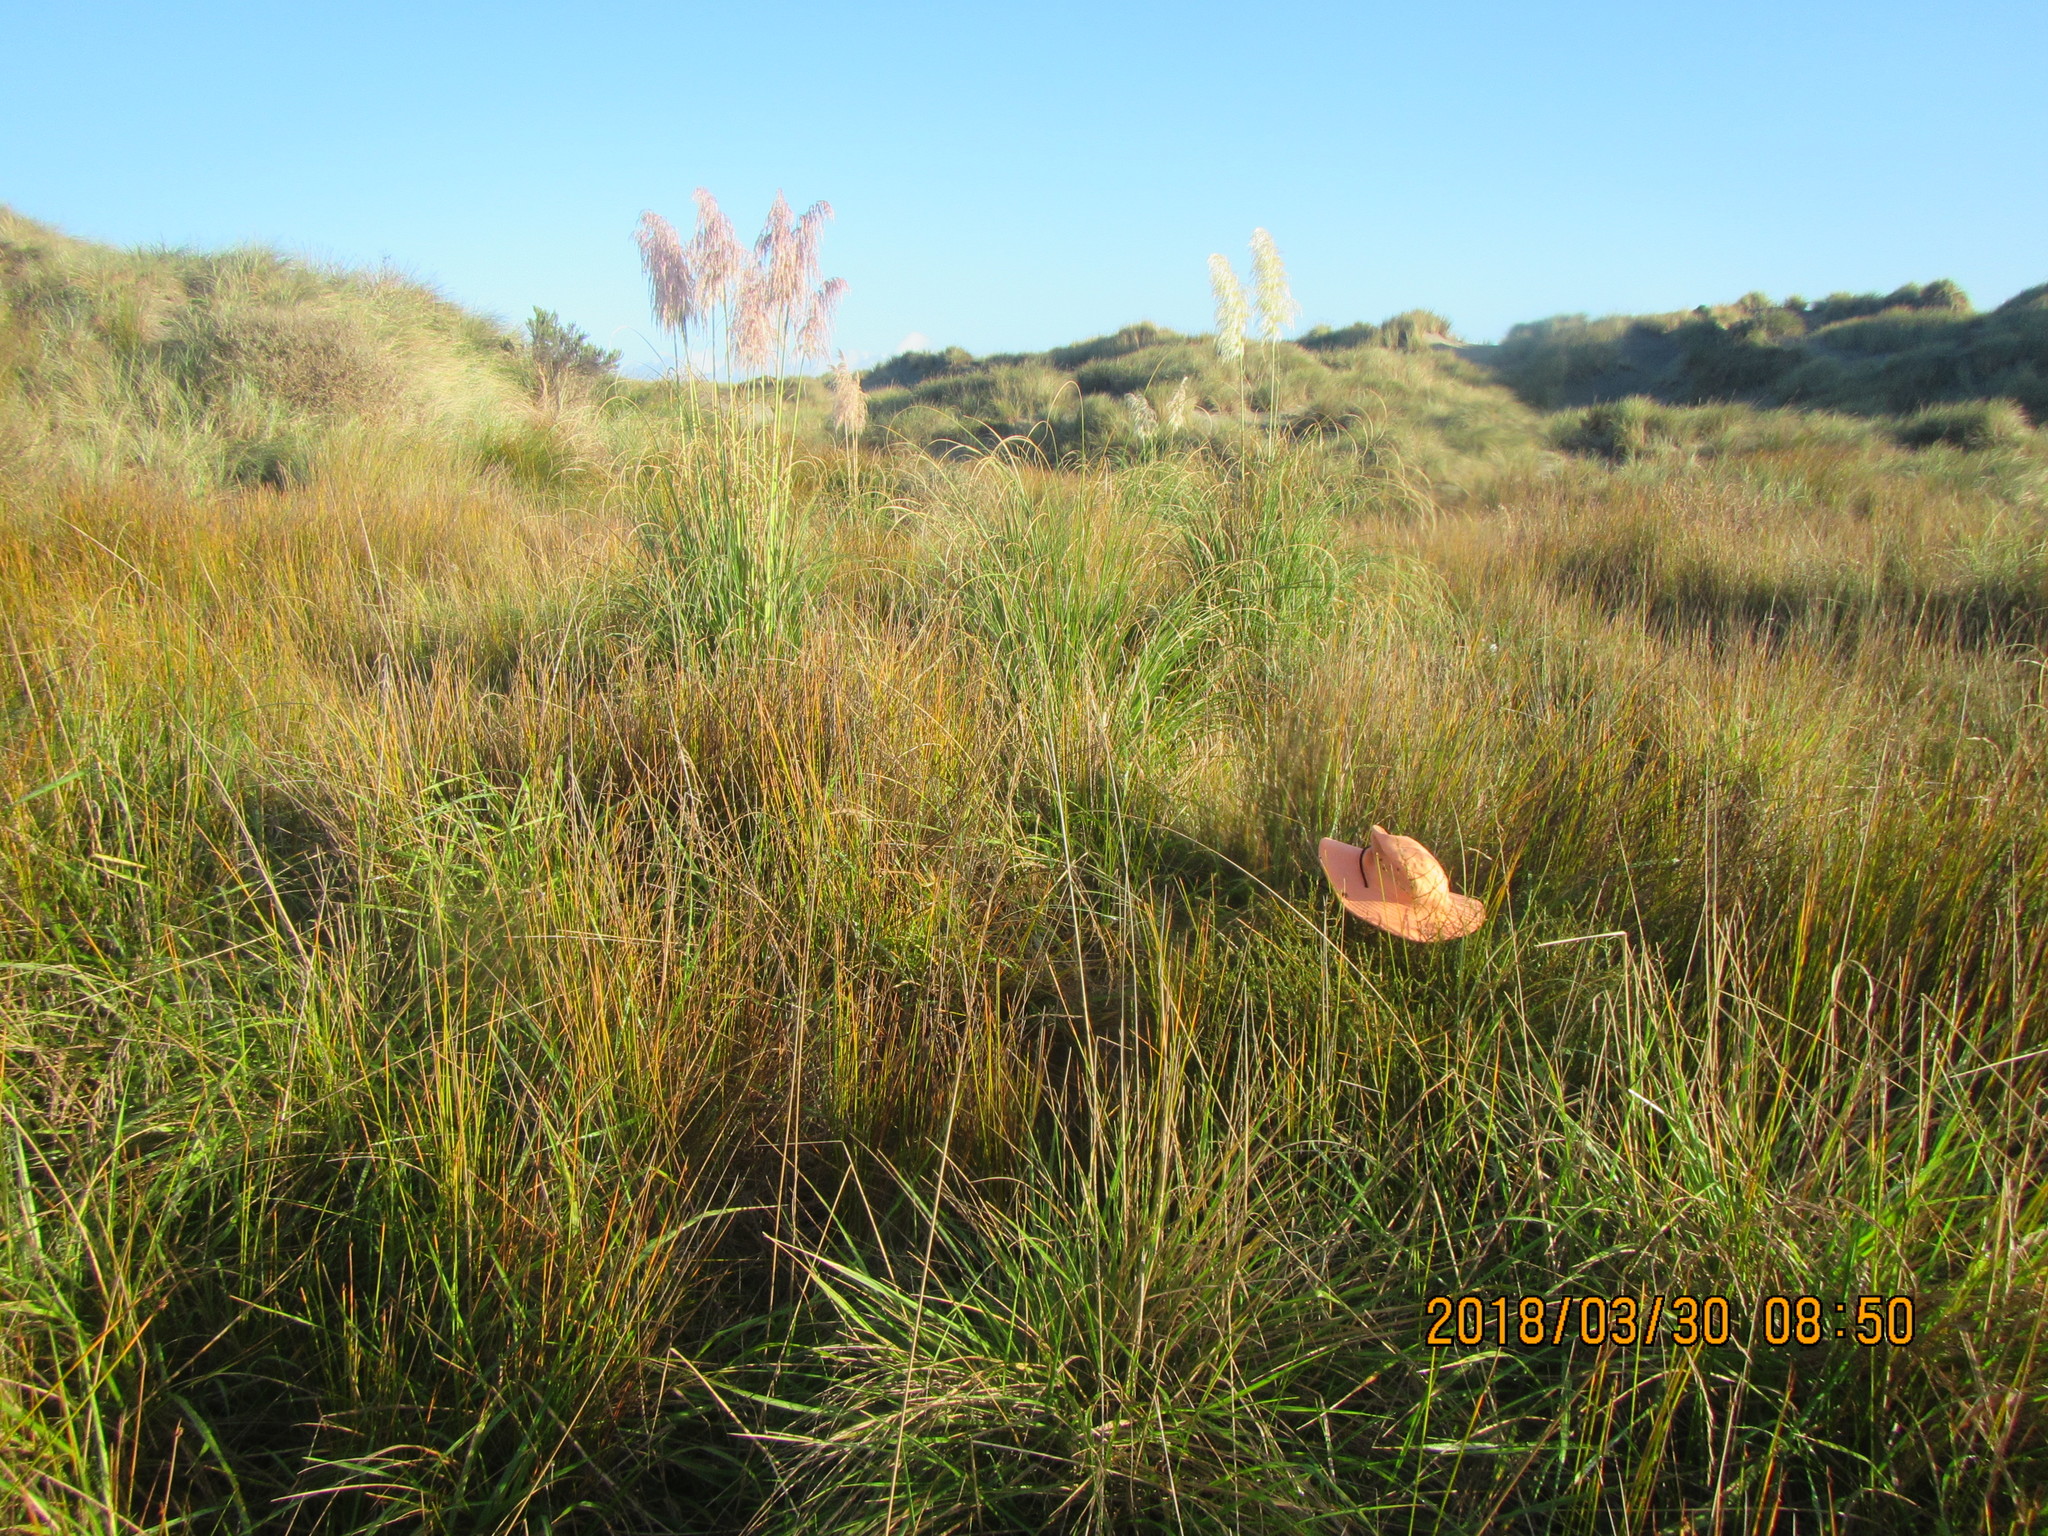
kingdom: Plantae
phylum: Tracheophyta
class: Magnoliopsida
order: Gentianales
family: Rubiaceae
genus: Coprosma
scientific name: Coprosma acerosa
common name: Sand coprosma
